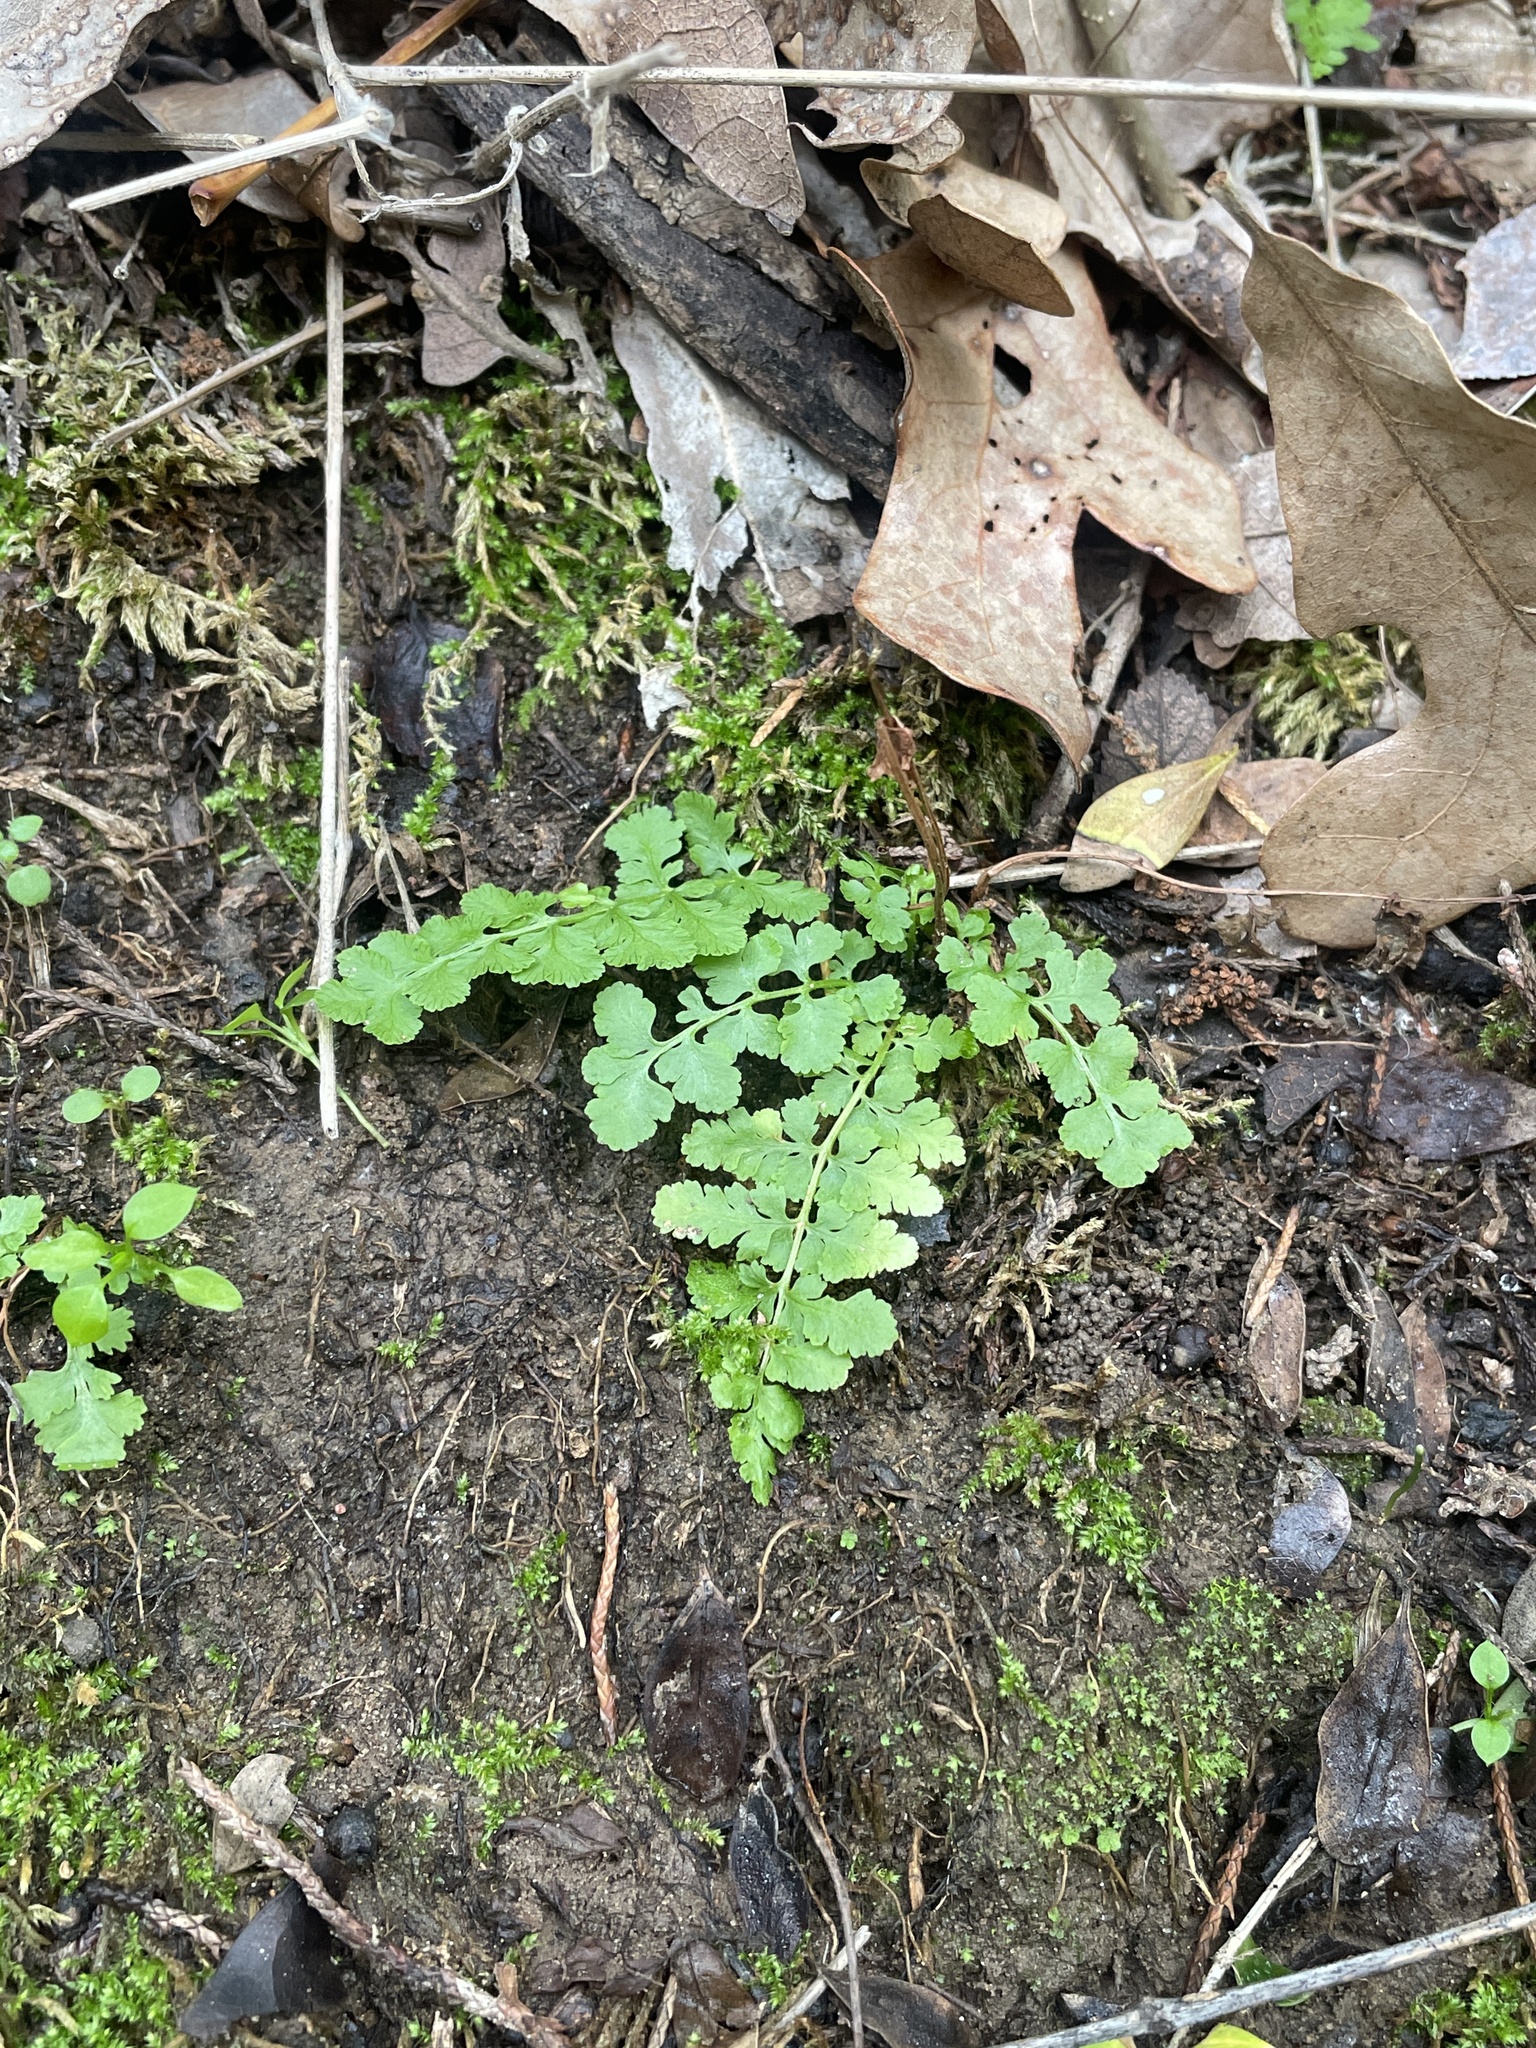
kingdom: Plantae
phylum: Tracheophyta
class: Polypodiopsida
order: Polypodiales
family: Woodsiaceae
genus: Physematium
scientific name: Physematium obtusum
